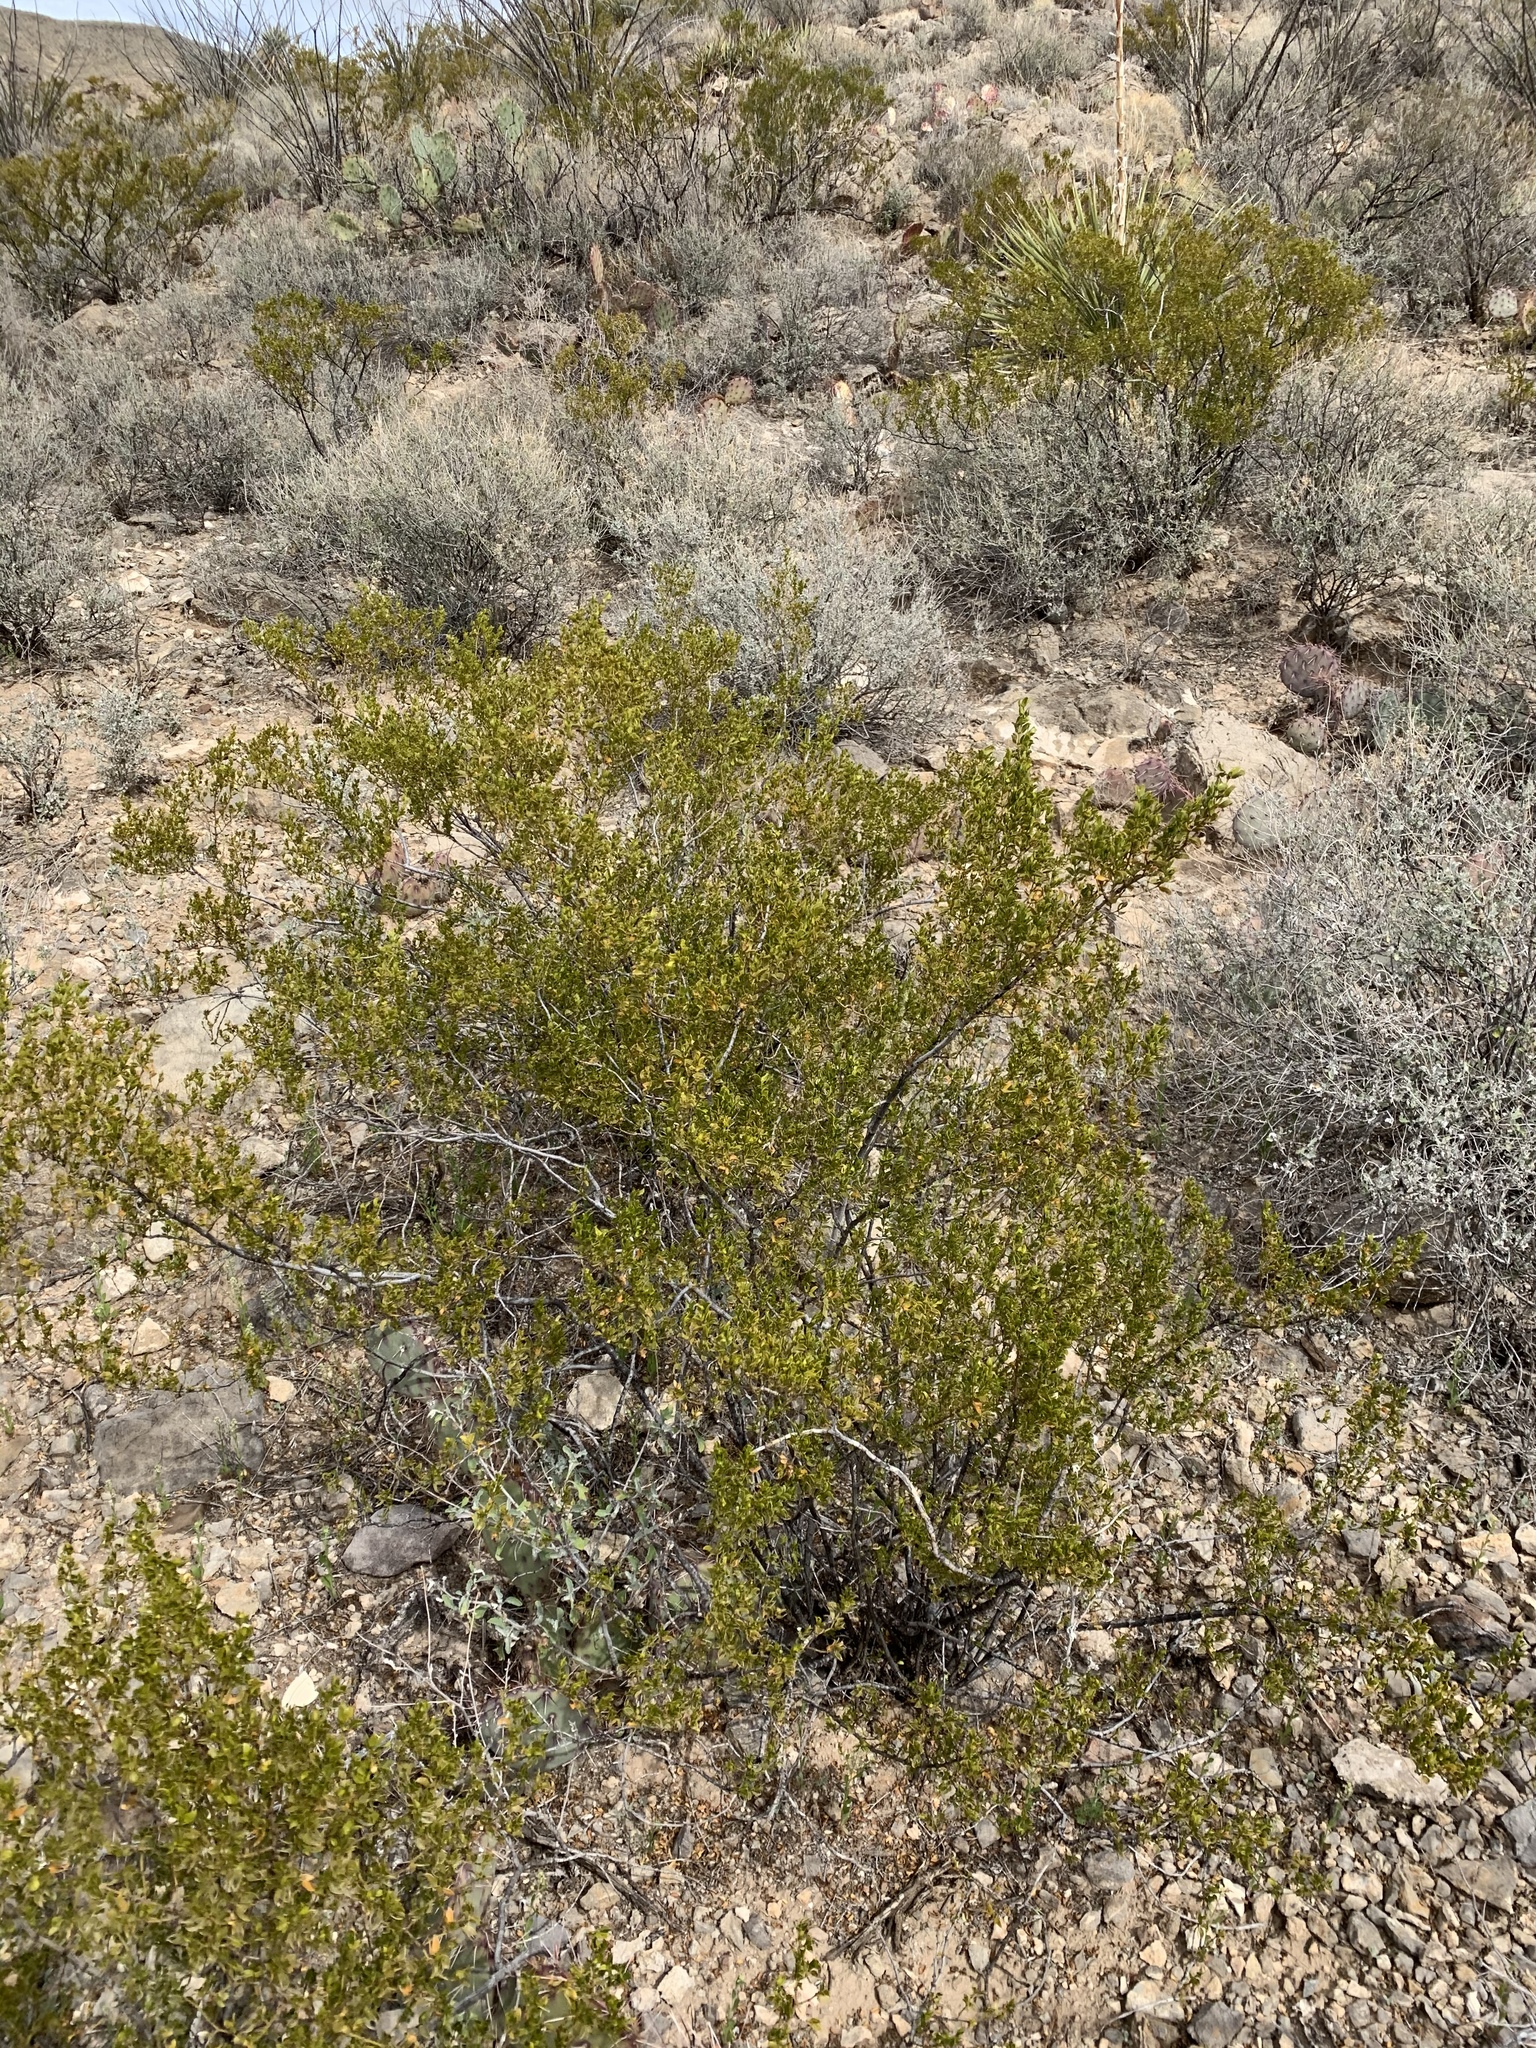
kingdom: Plantae
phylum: Tracheophyta
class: Magnoliopsida
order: Zygophyllales
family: Zygophyllaceae
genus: Larrea
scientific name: Larrea tridentata
